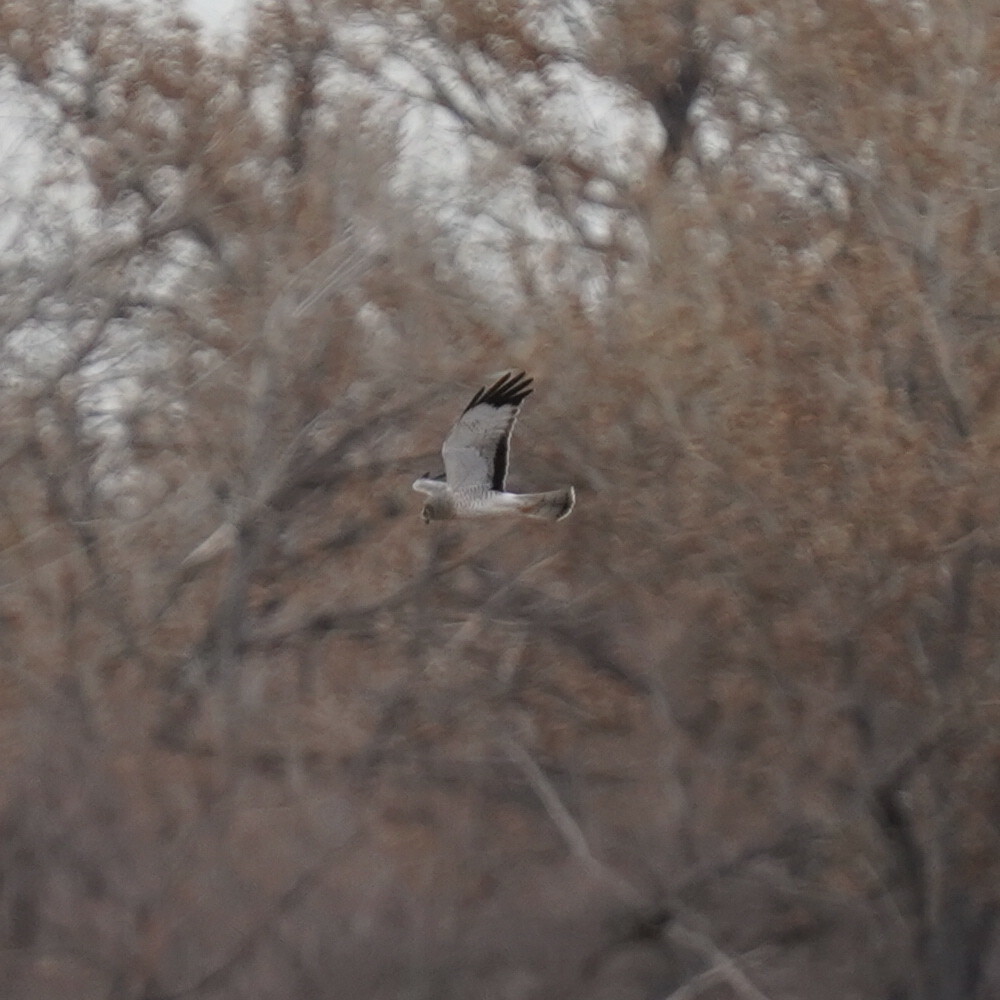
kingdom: Animalia
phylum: Chordata
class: Aves
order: Accipitriformes
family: Accipitridae
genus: Circus
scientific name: Circus cyaneus
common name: Hen harrier
